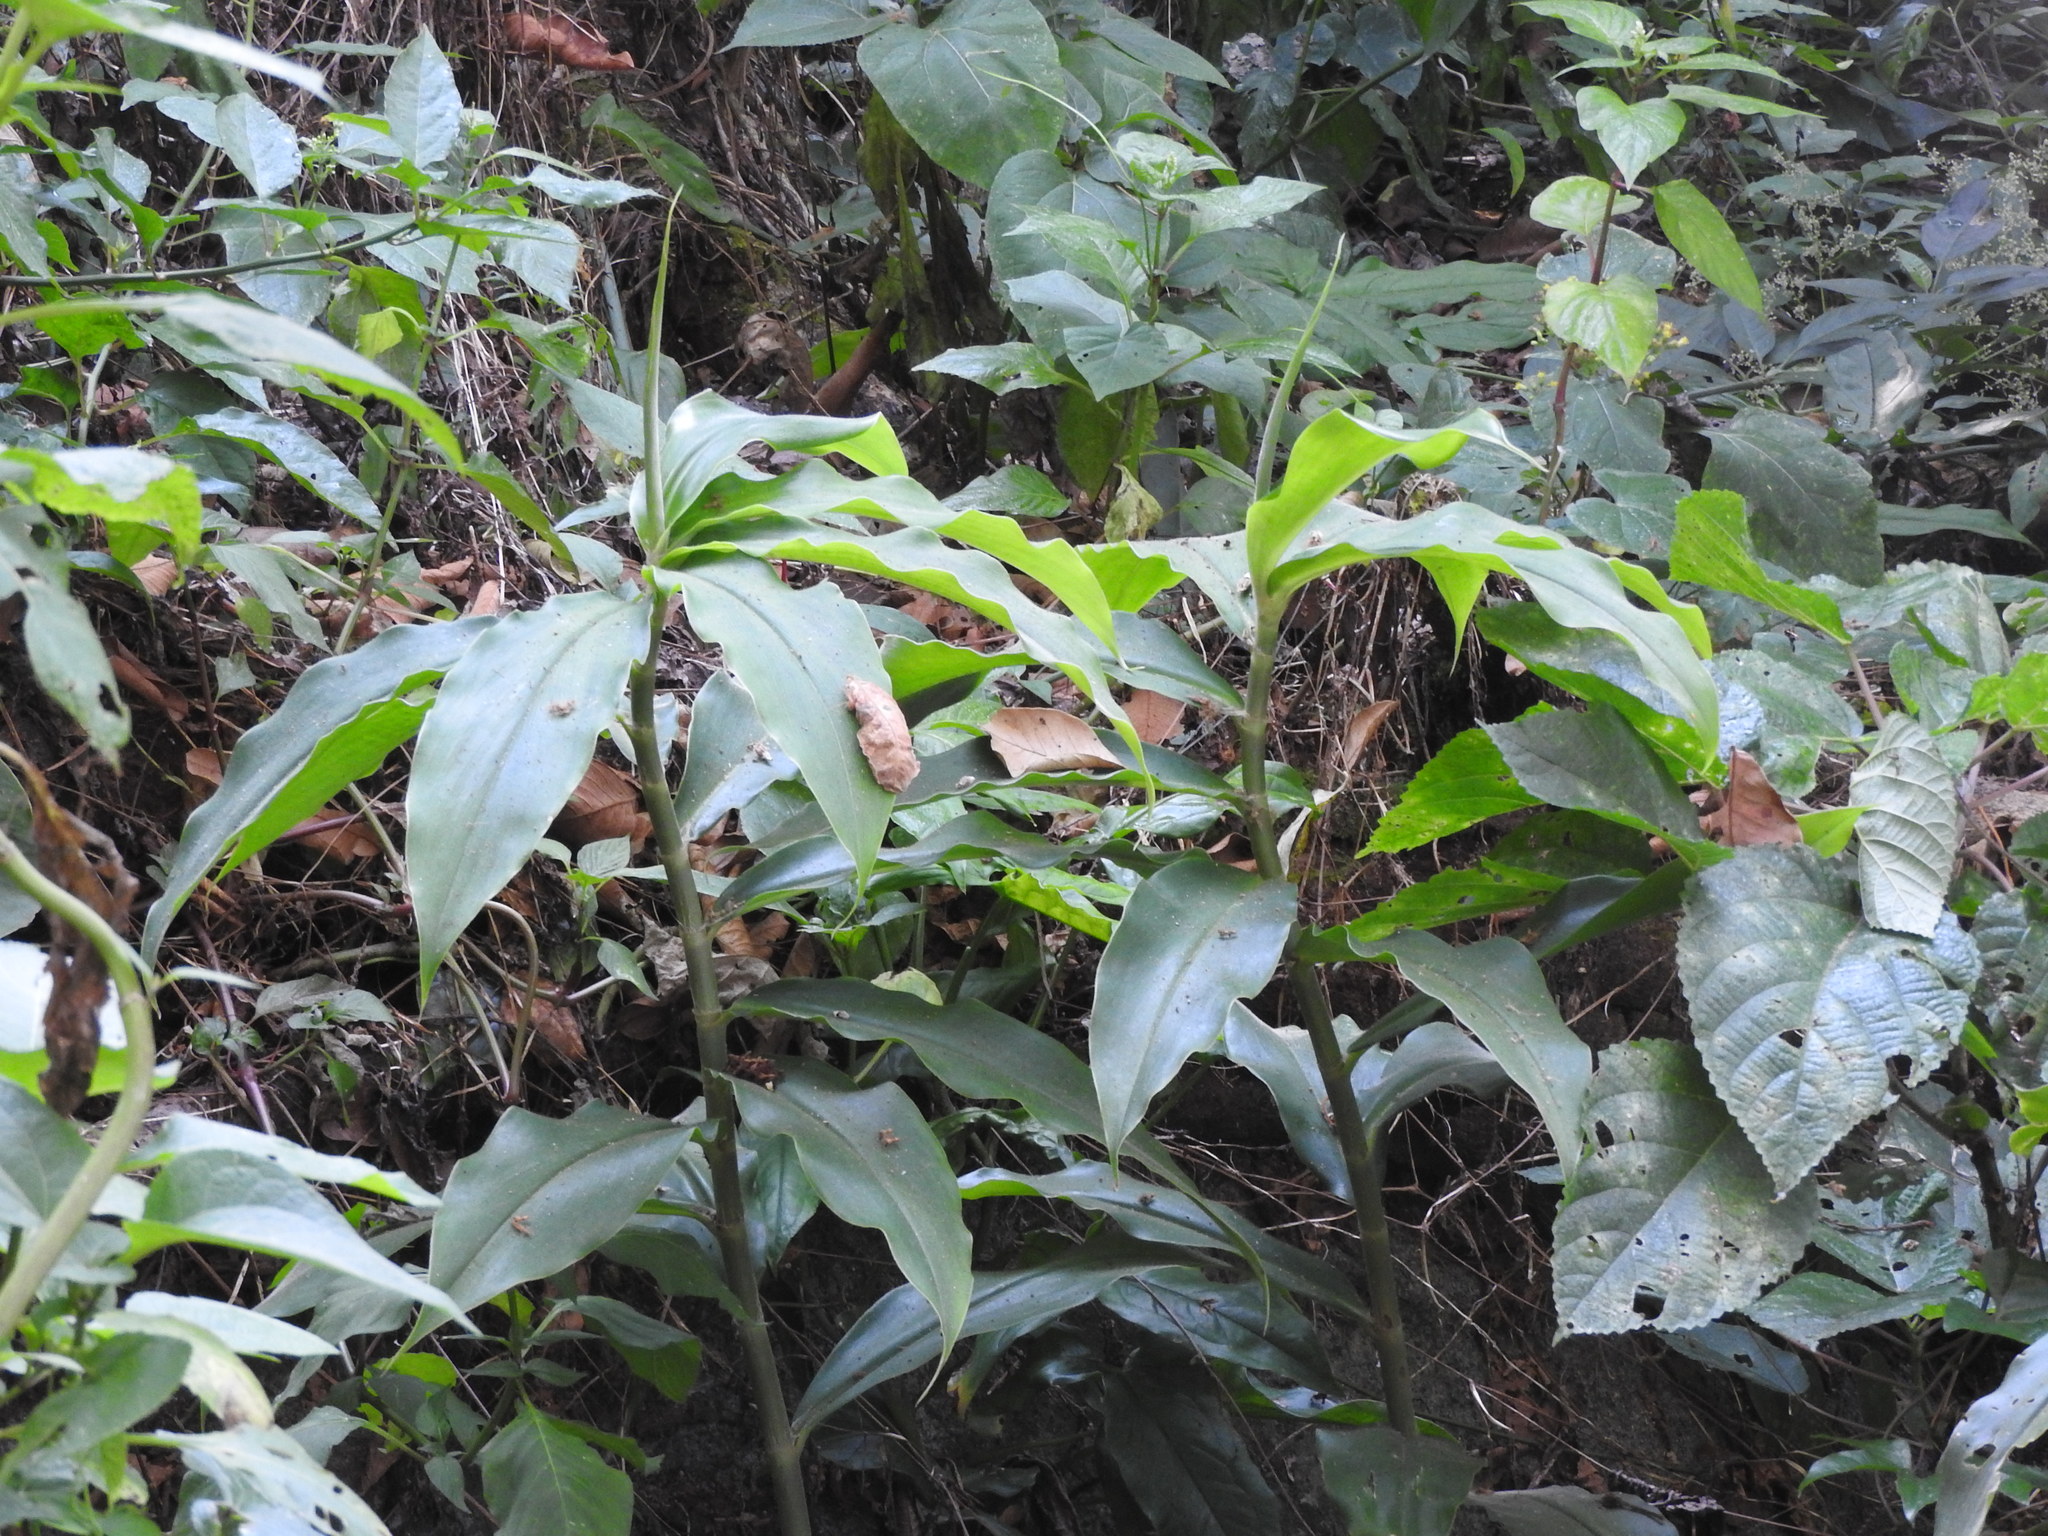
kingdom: Plantae
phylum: Tracheophyta
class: Liliopsida
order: Zingiberales
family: Costaceae
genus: Costus
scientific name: Costus pictus
